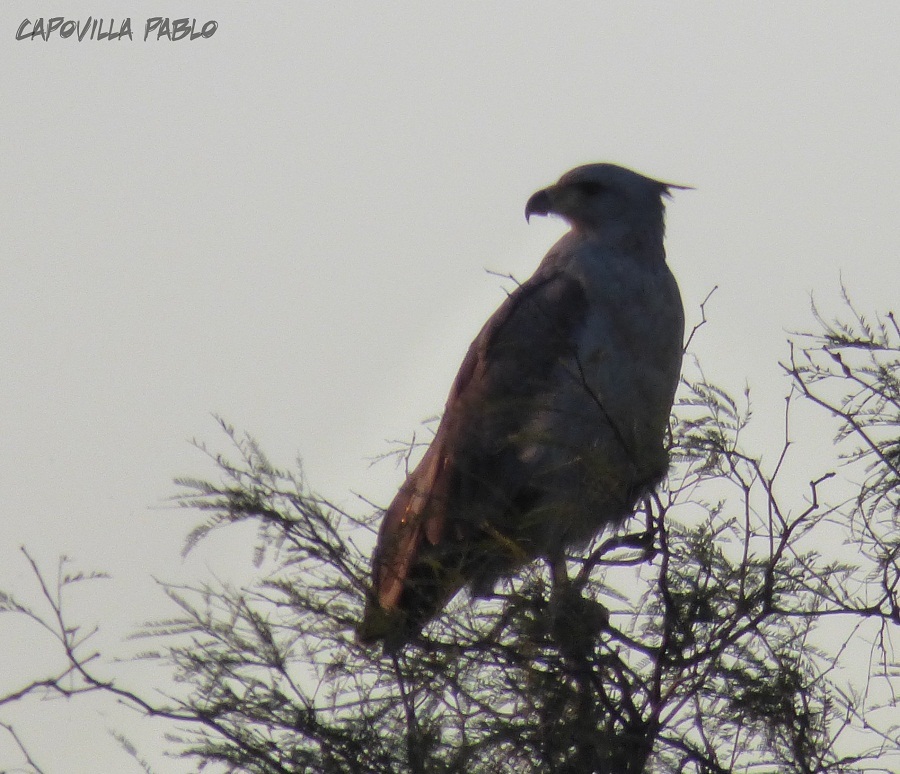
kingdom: Animalia
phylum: Chordata
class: Aves
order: Accipitriformes
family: Accipitridae
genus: Harpyhaliaetus
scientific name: Harpyhaliaetus coronatus
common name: Crowned solitary eagle
